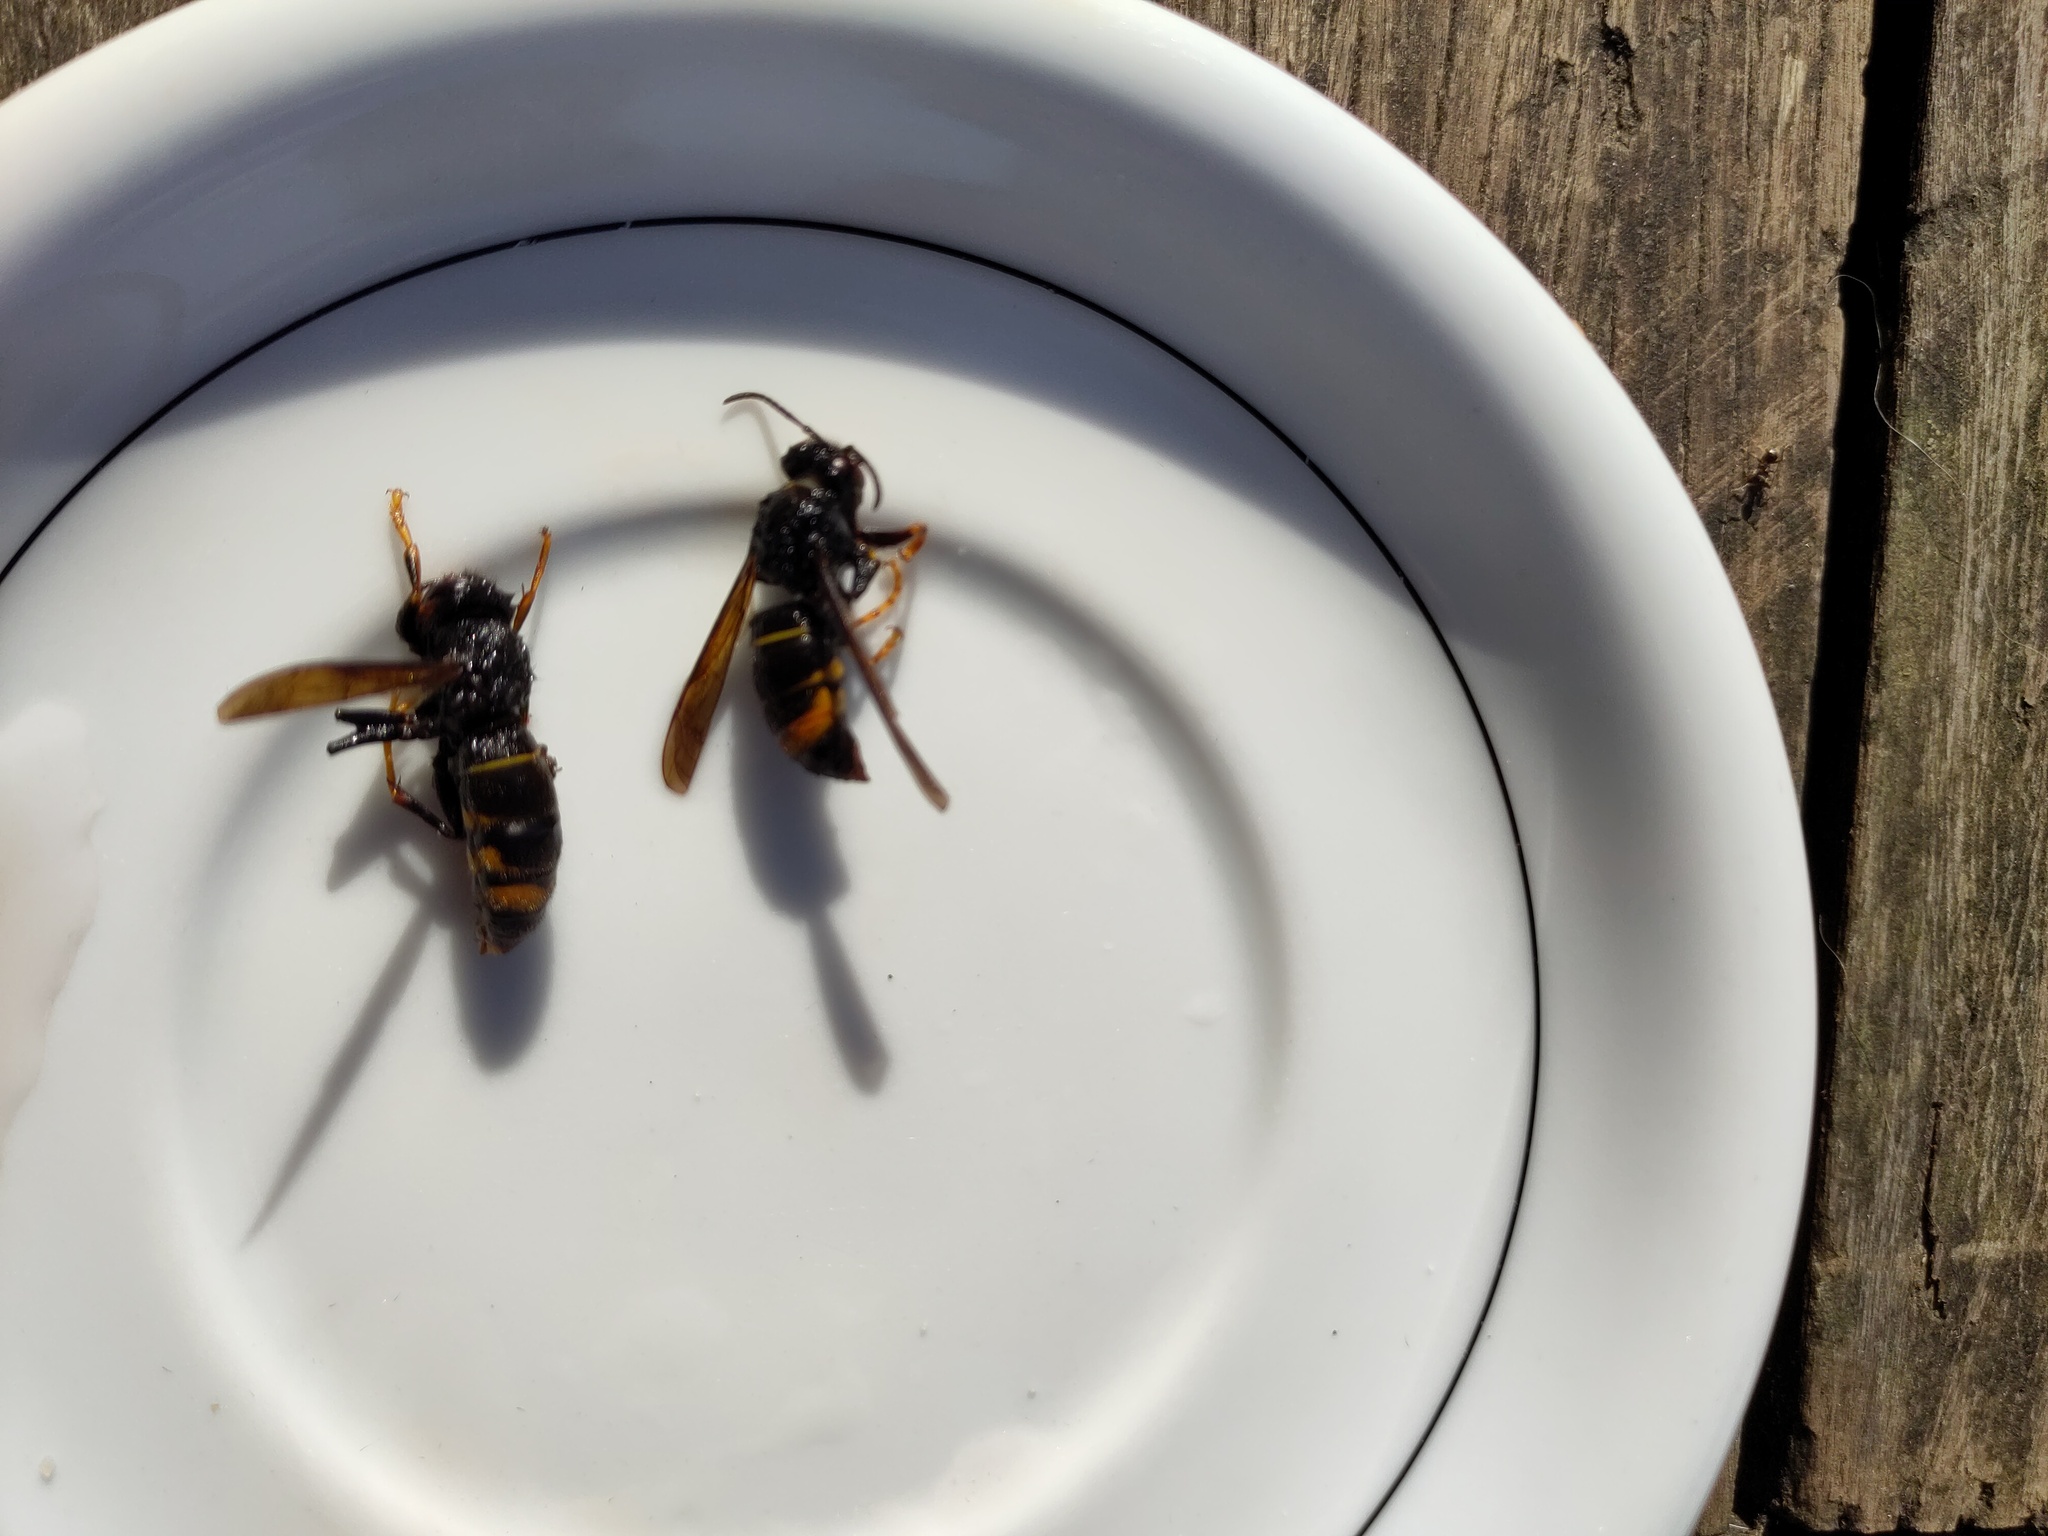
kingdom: Animalia
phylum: Arthropoda
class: Insecta
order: Hymenoptera
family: Vespidae
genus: Vespa
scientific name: Vespa velutina
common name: Asian hornet
